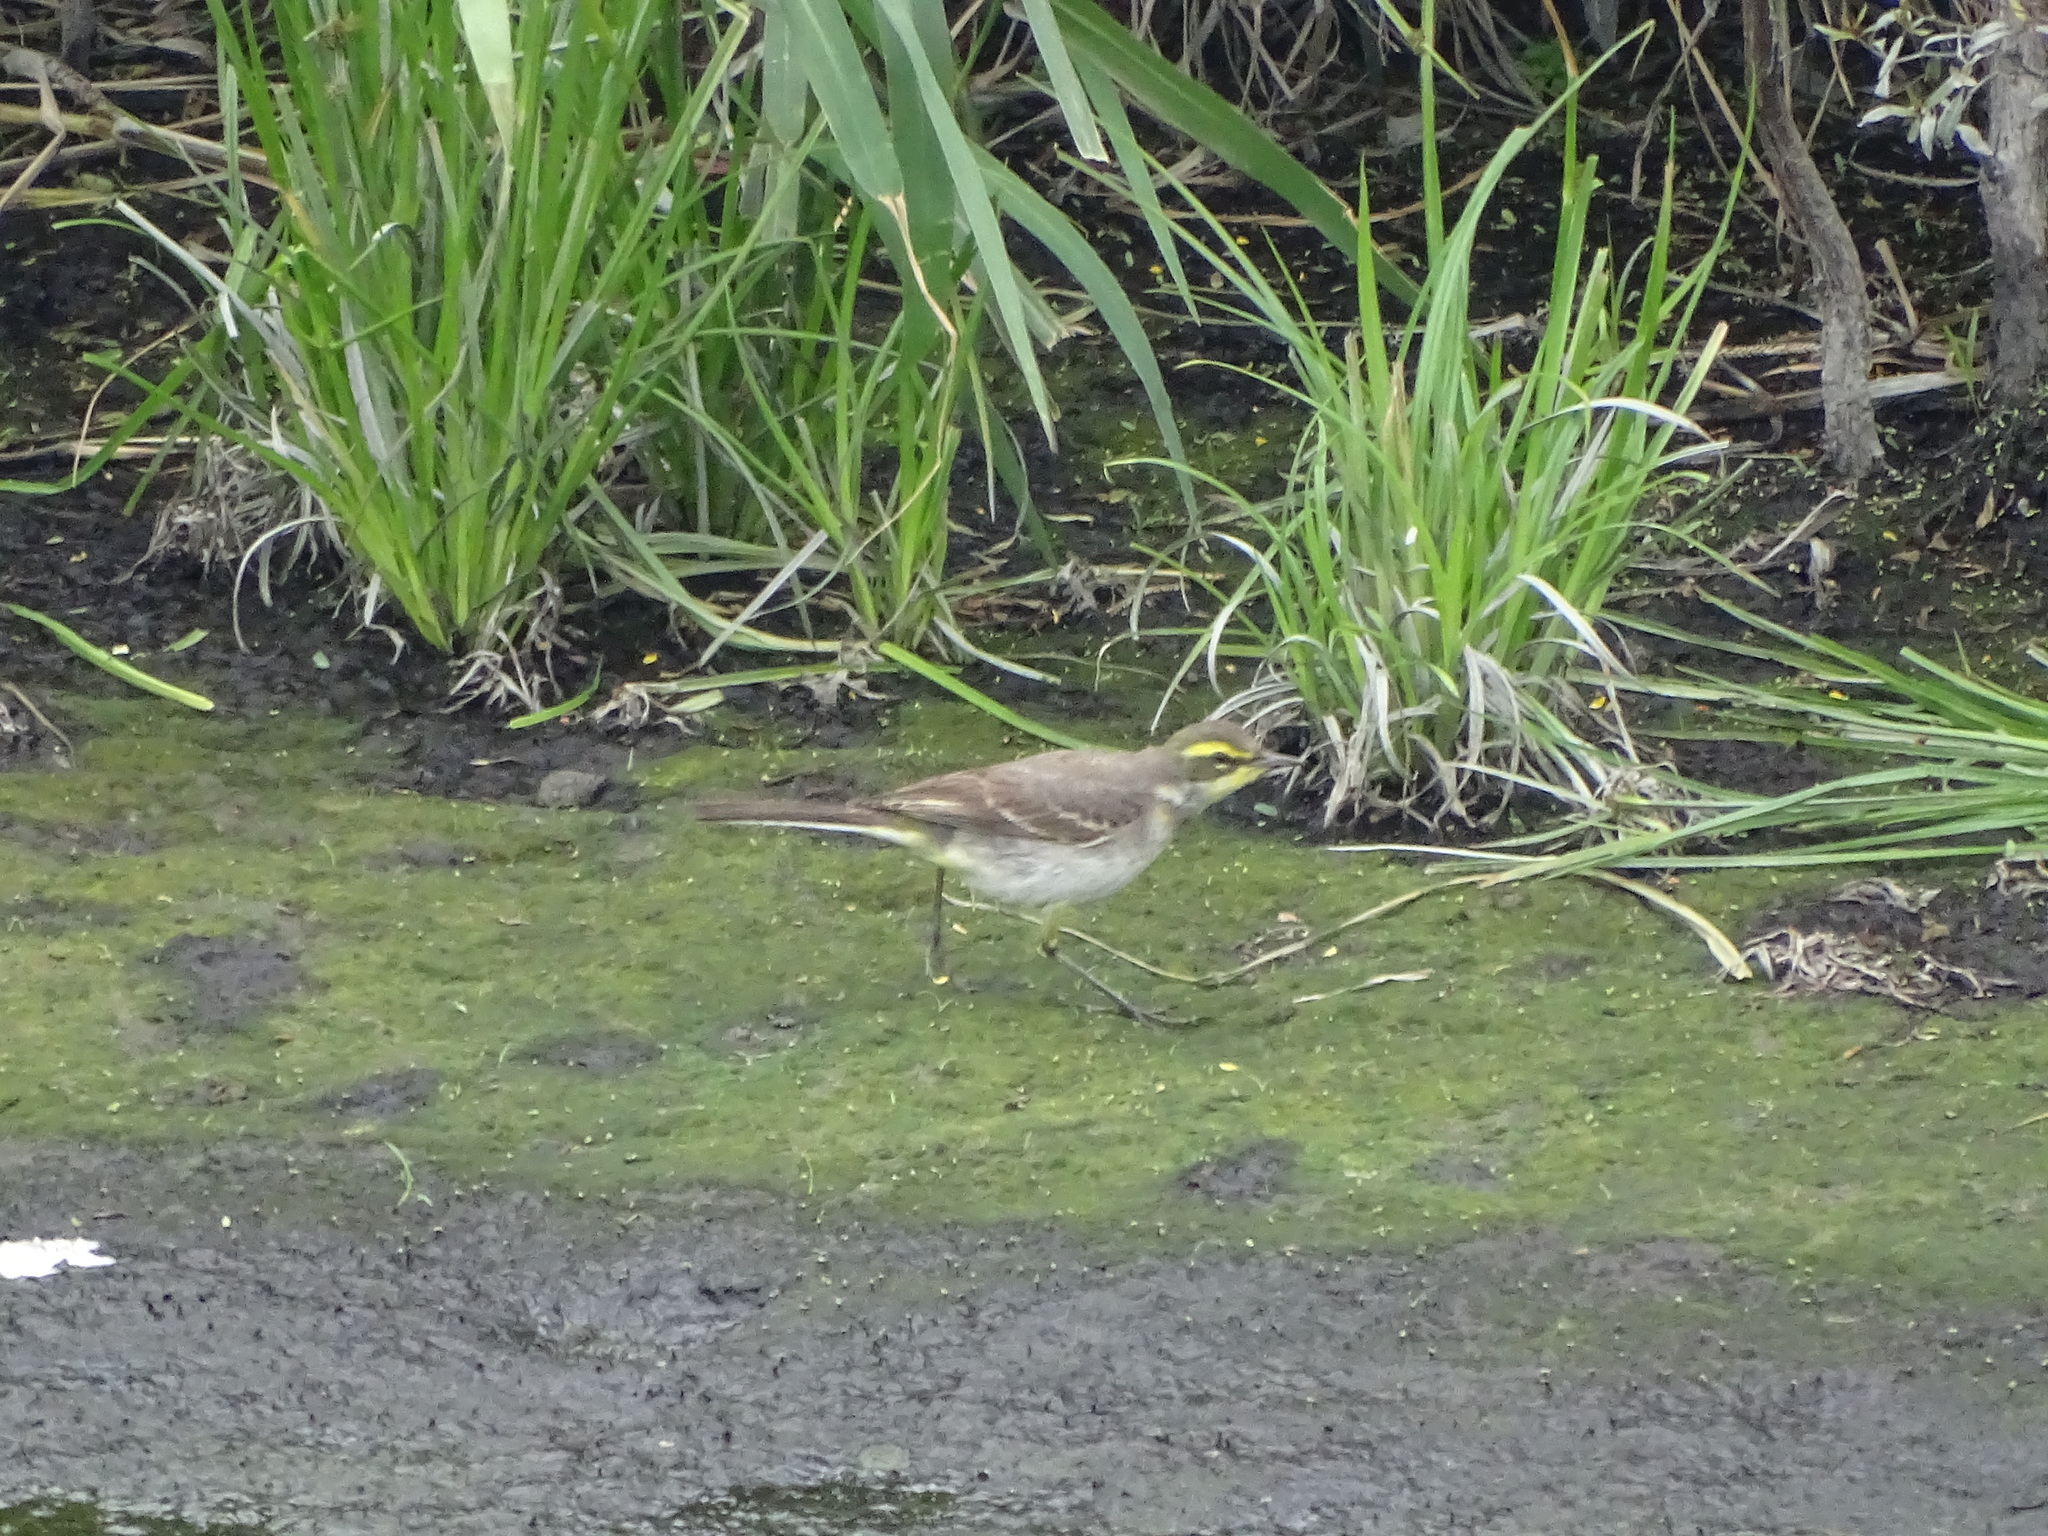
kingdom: Animalia
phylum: Chordata
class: Aves
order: Passeriformes
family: Motacillidae
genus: Motacilla
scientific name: Motacilla tschutschensis
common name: Eastern yellow wagtail
